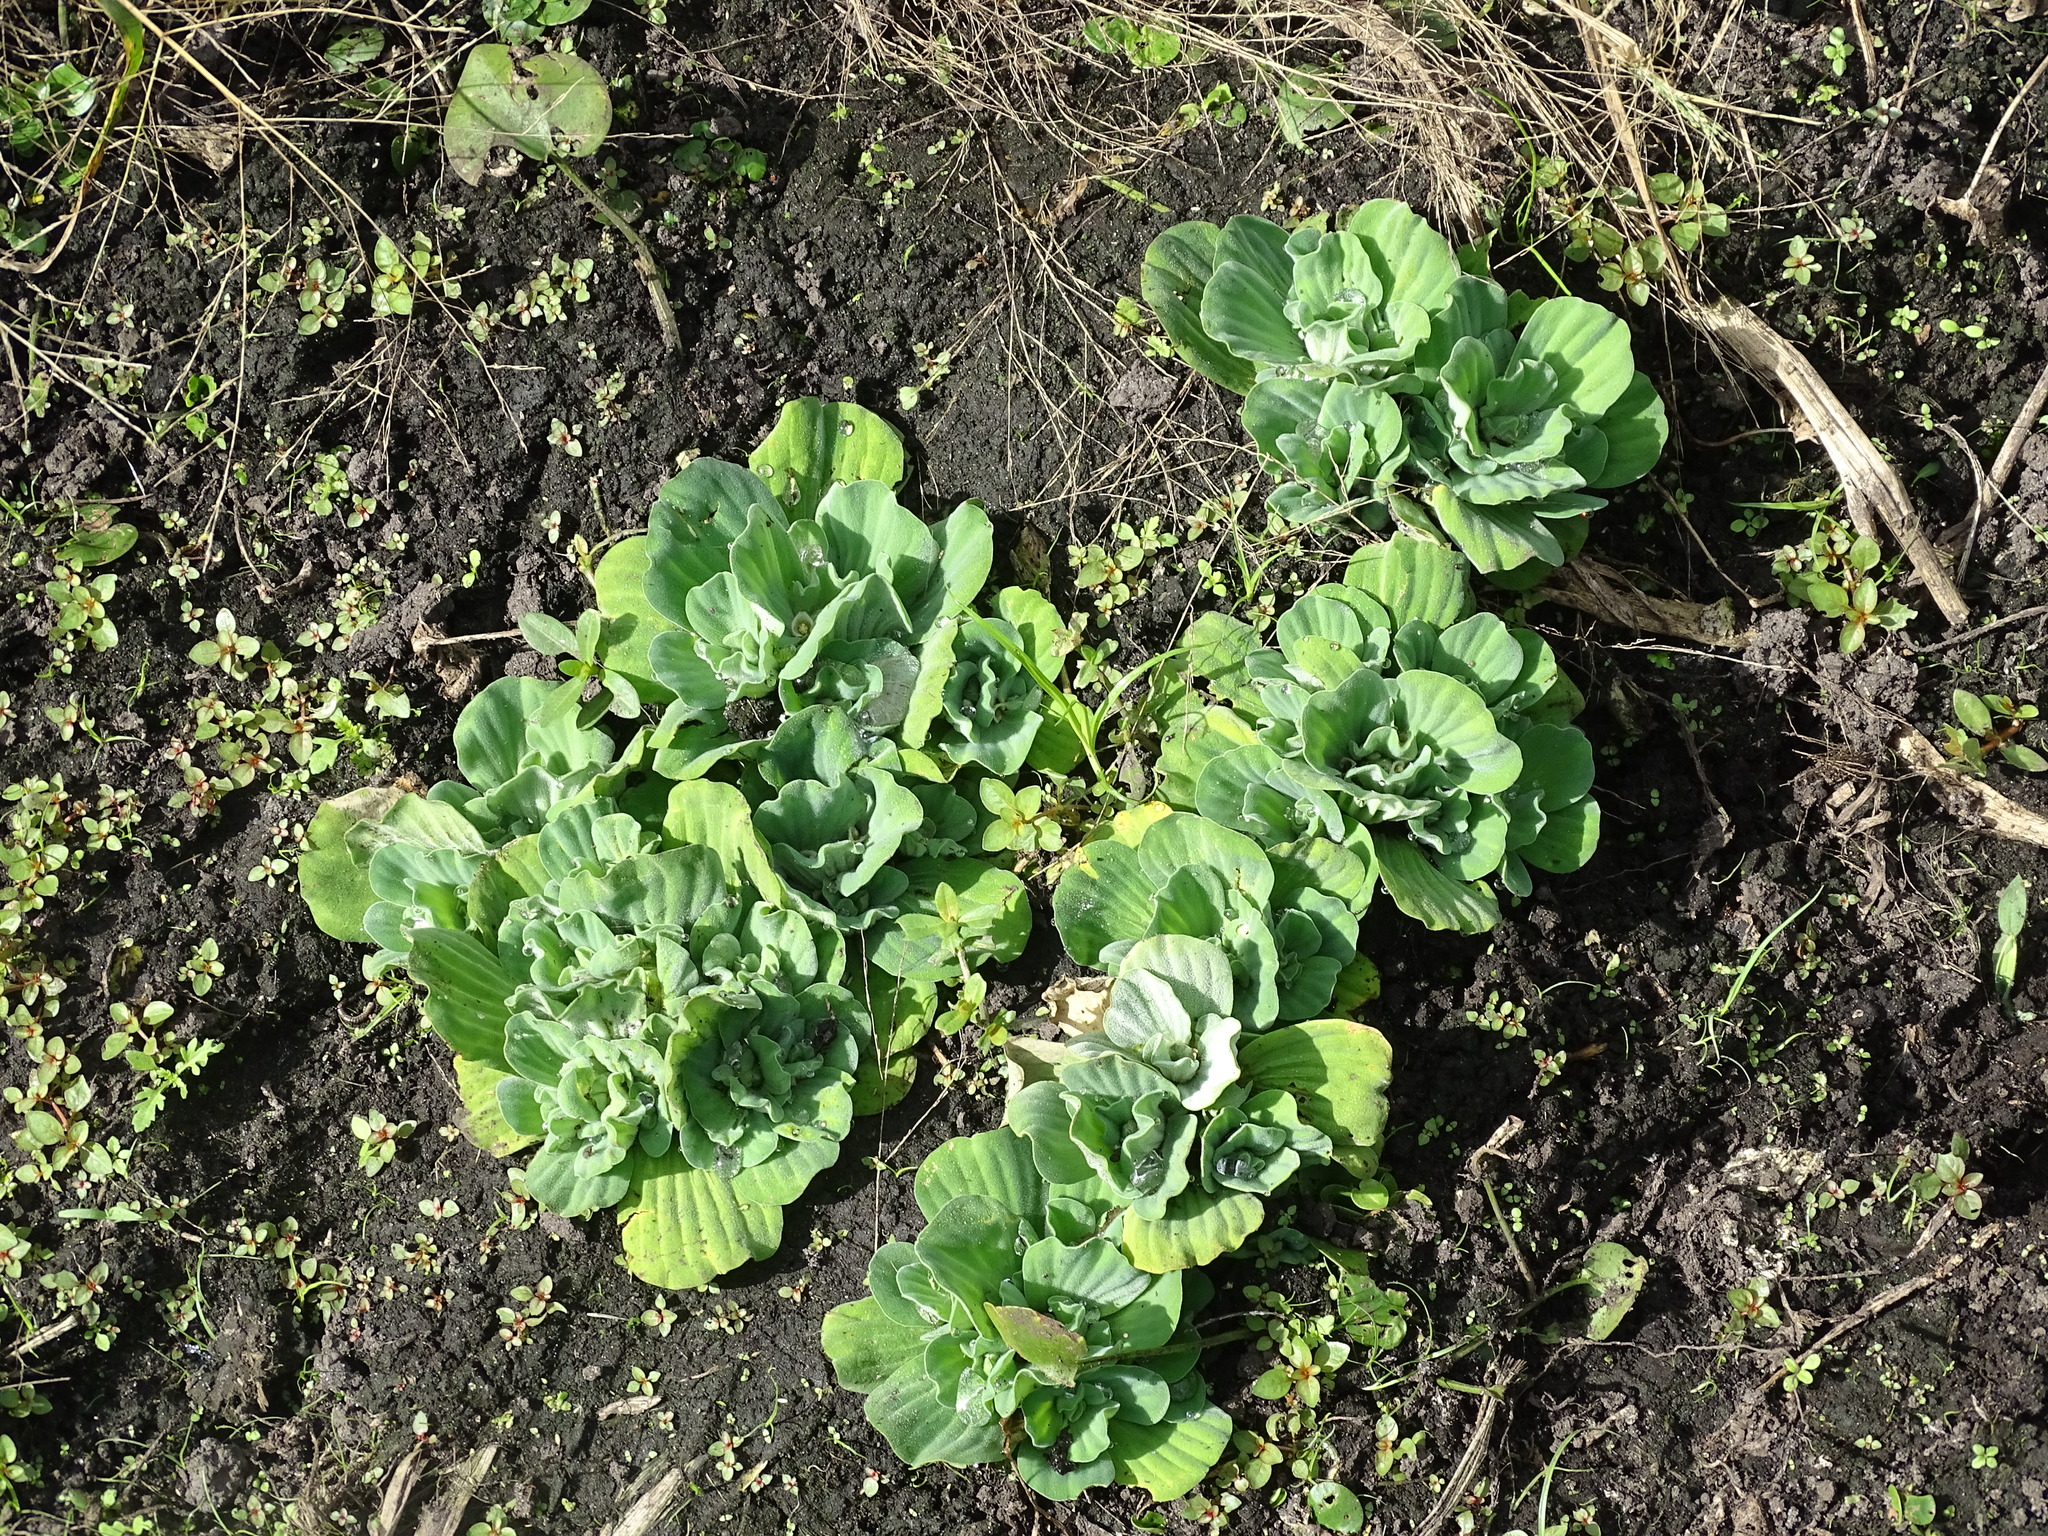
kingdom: Plantae
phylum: Tracheophyta
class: Liliopsida
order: Alismatales
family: Araceae
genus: Pistia
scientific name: Pistia stratiotes
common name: Water lettuce
